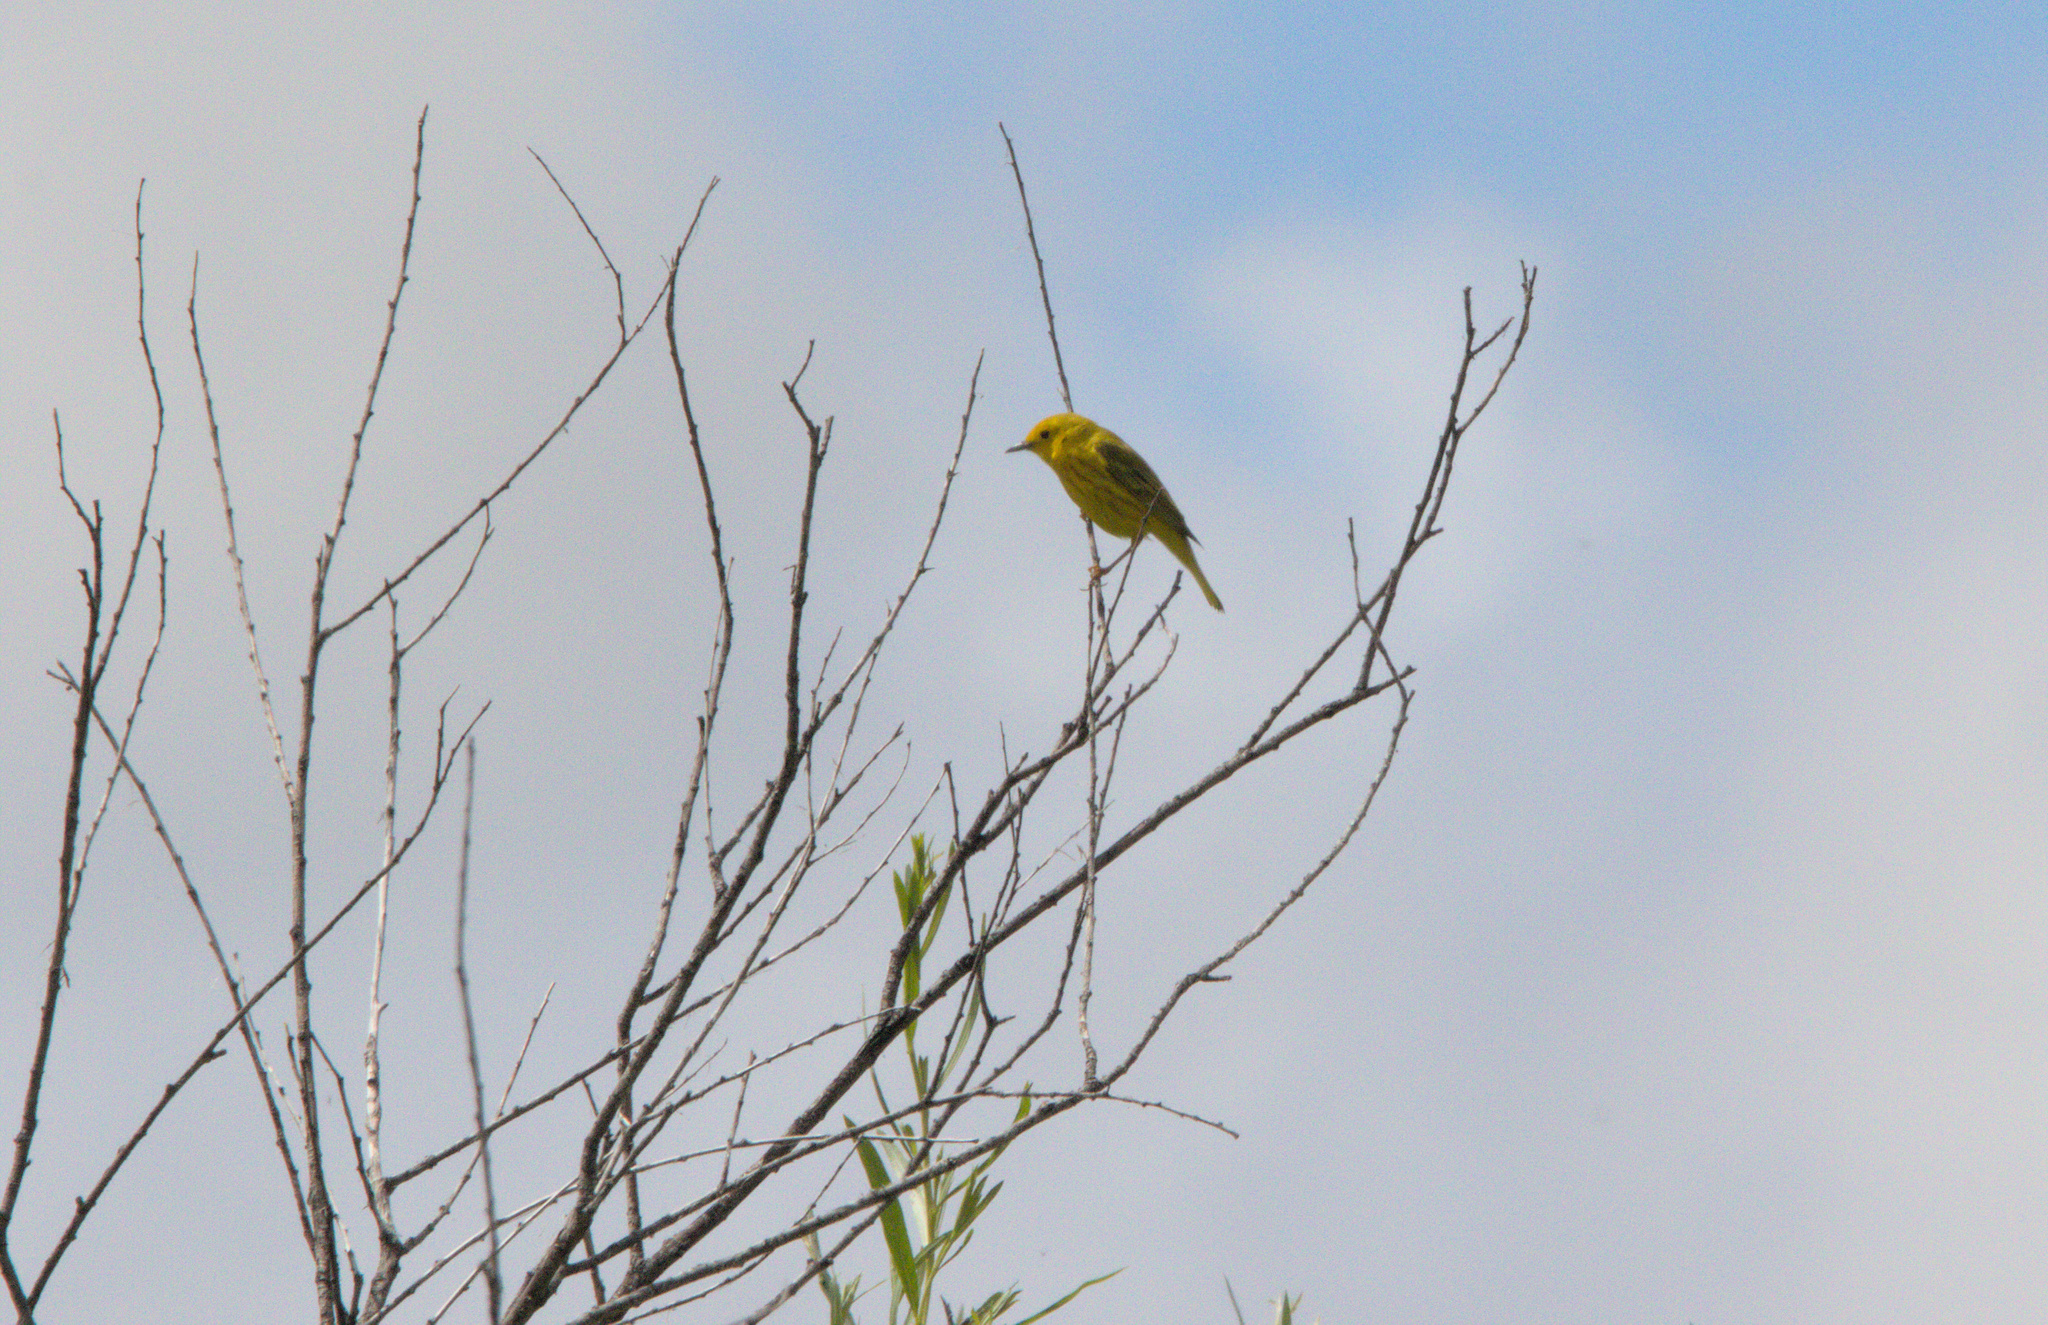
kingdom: Animalia
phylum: Chordata
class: Aves
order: Passeriformes
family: Parulidae
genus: Setophaga
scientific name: Setophaga petechia
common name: Yellow warbler
